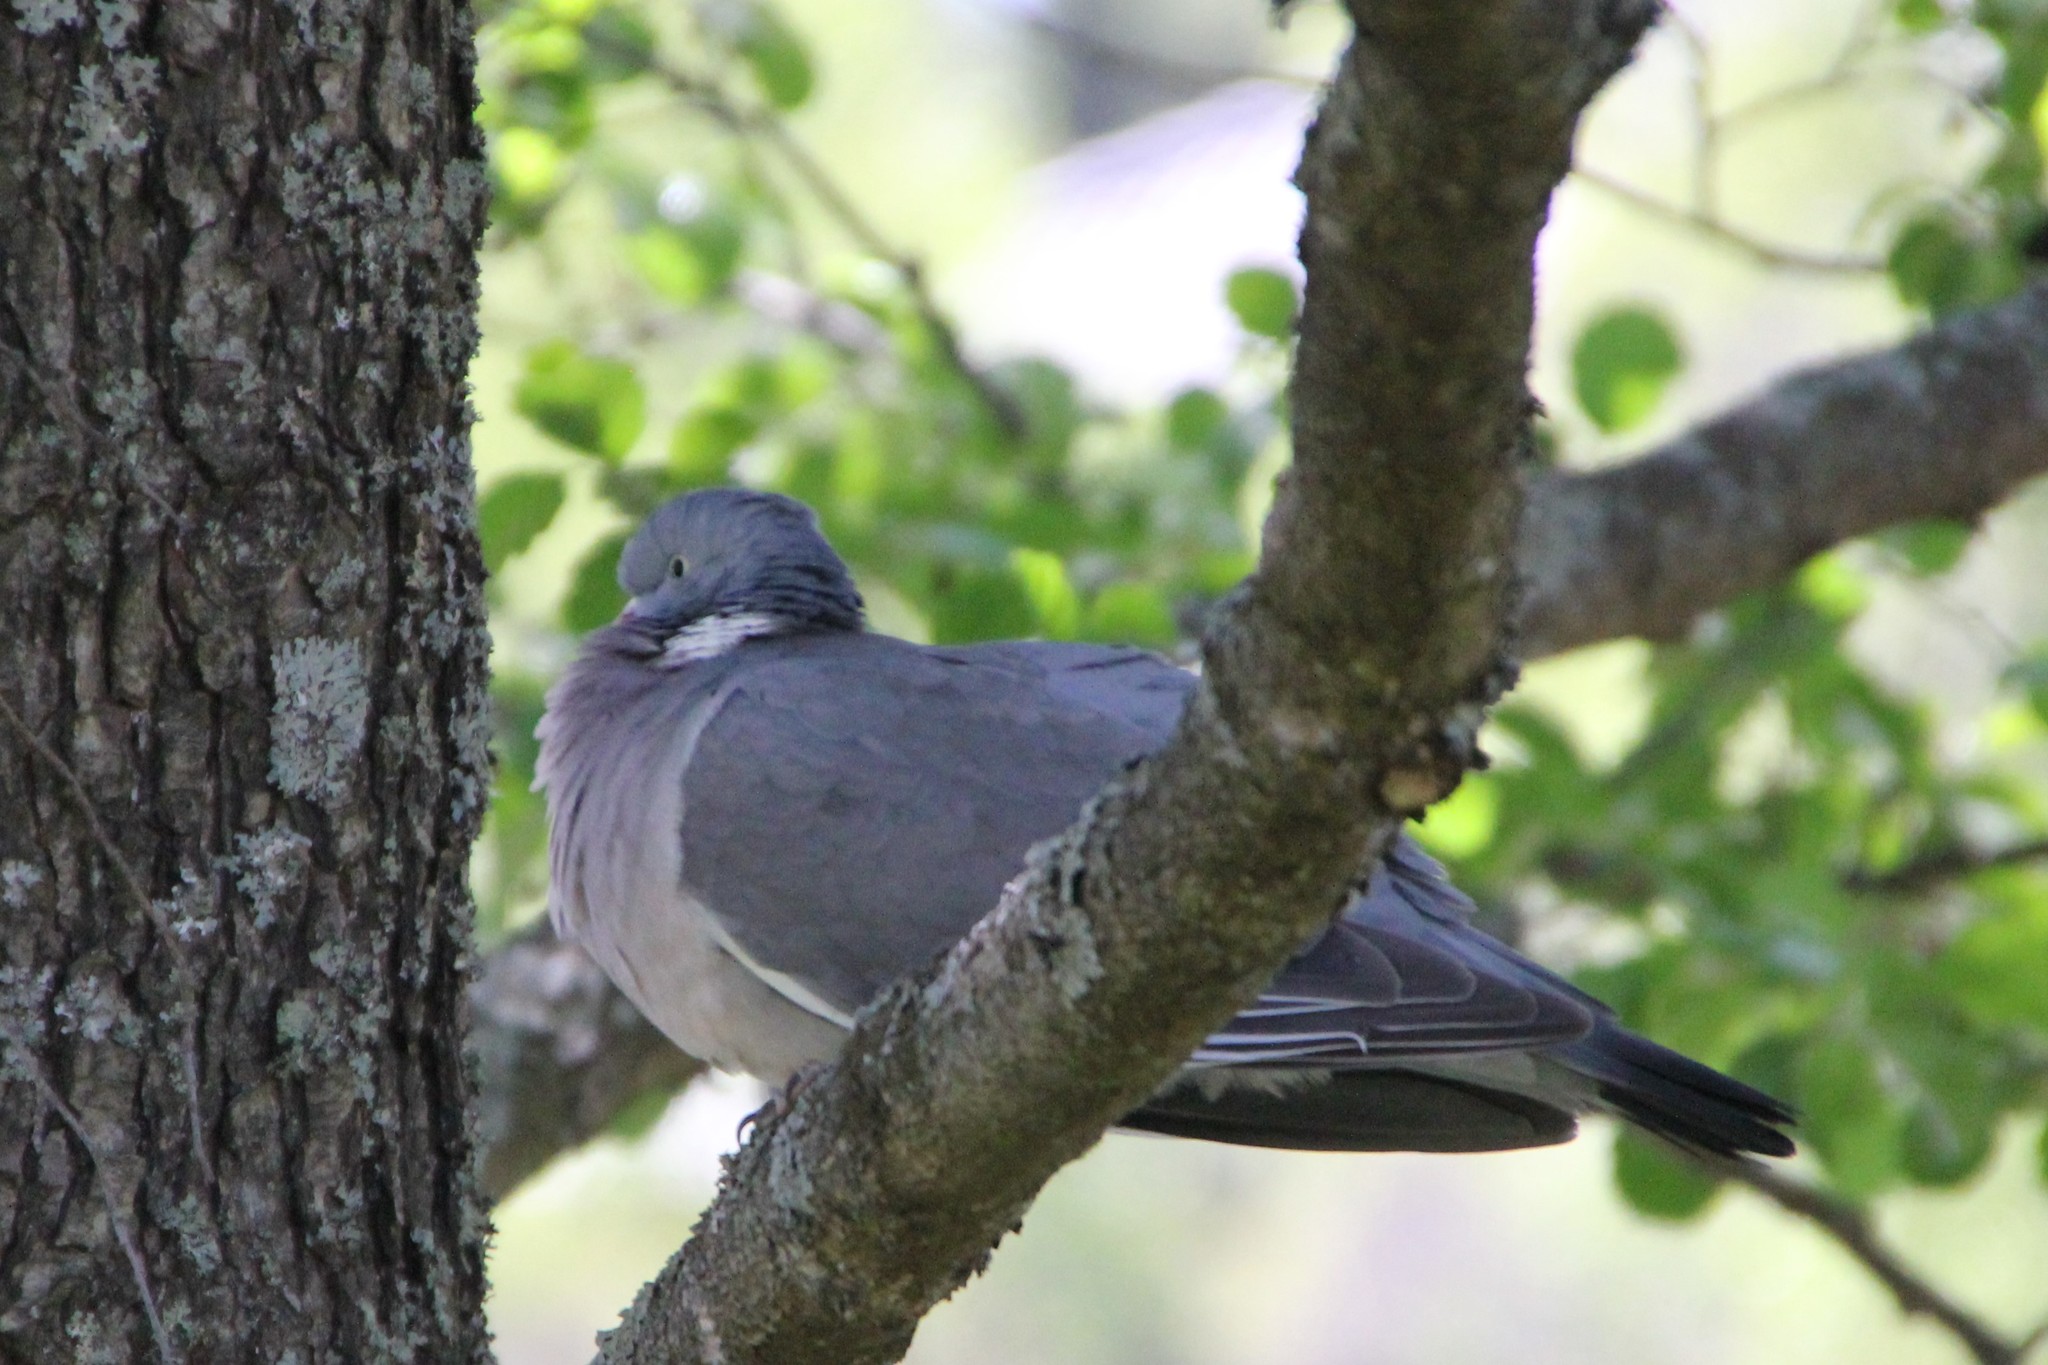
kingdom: Animalia
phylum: Chordata
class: Aves
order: Columbiformes
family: Columbidae
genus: Columba
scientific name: Columba palumbus
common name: Common wood pigeon
